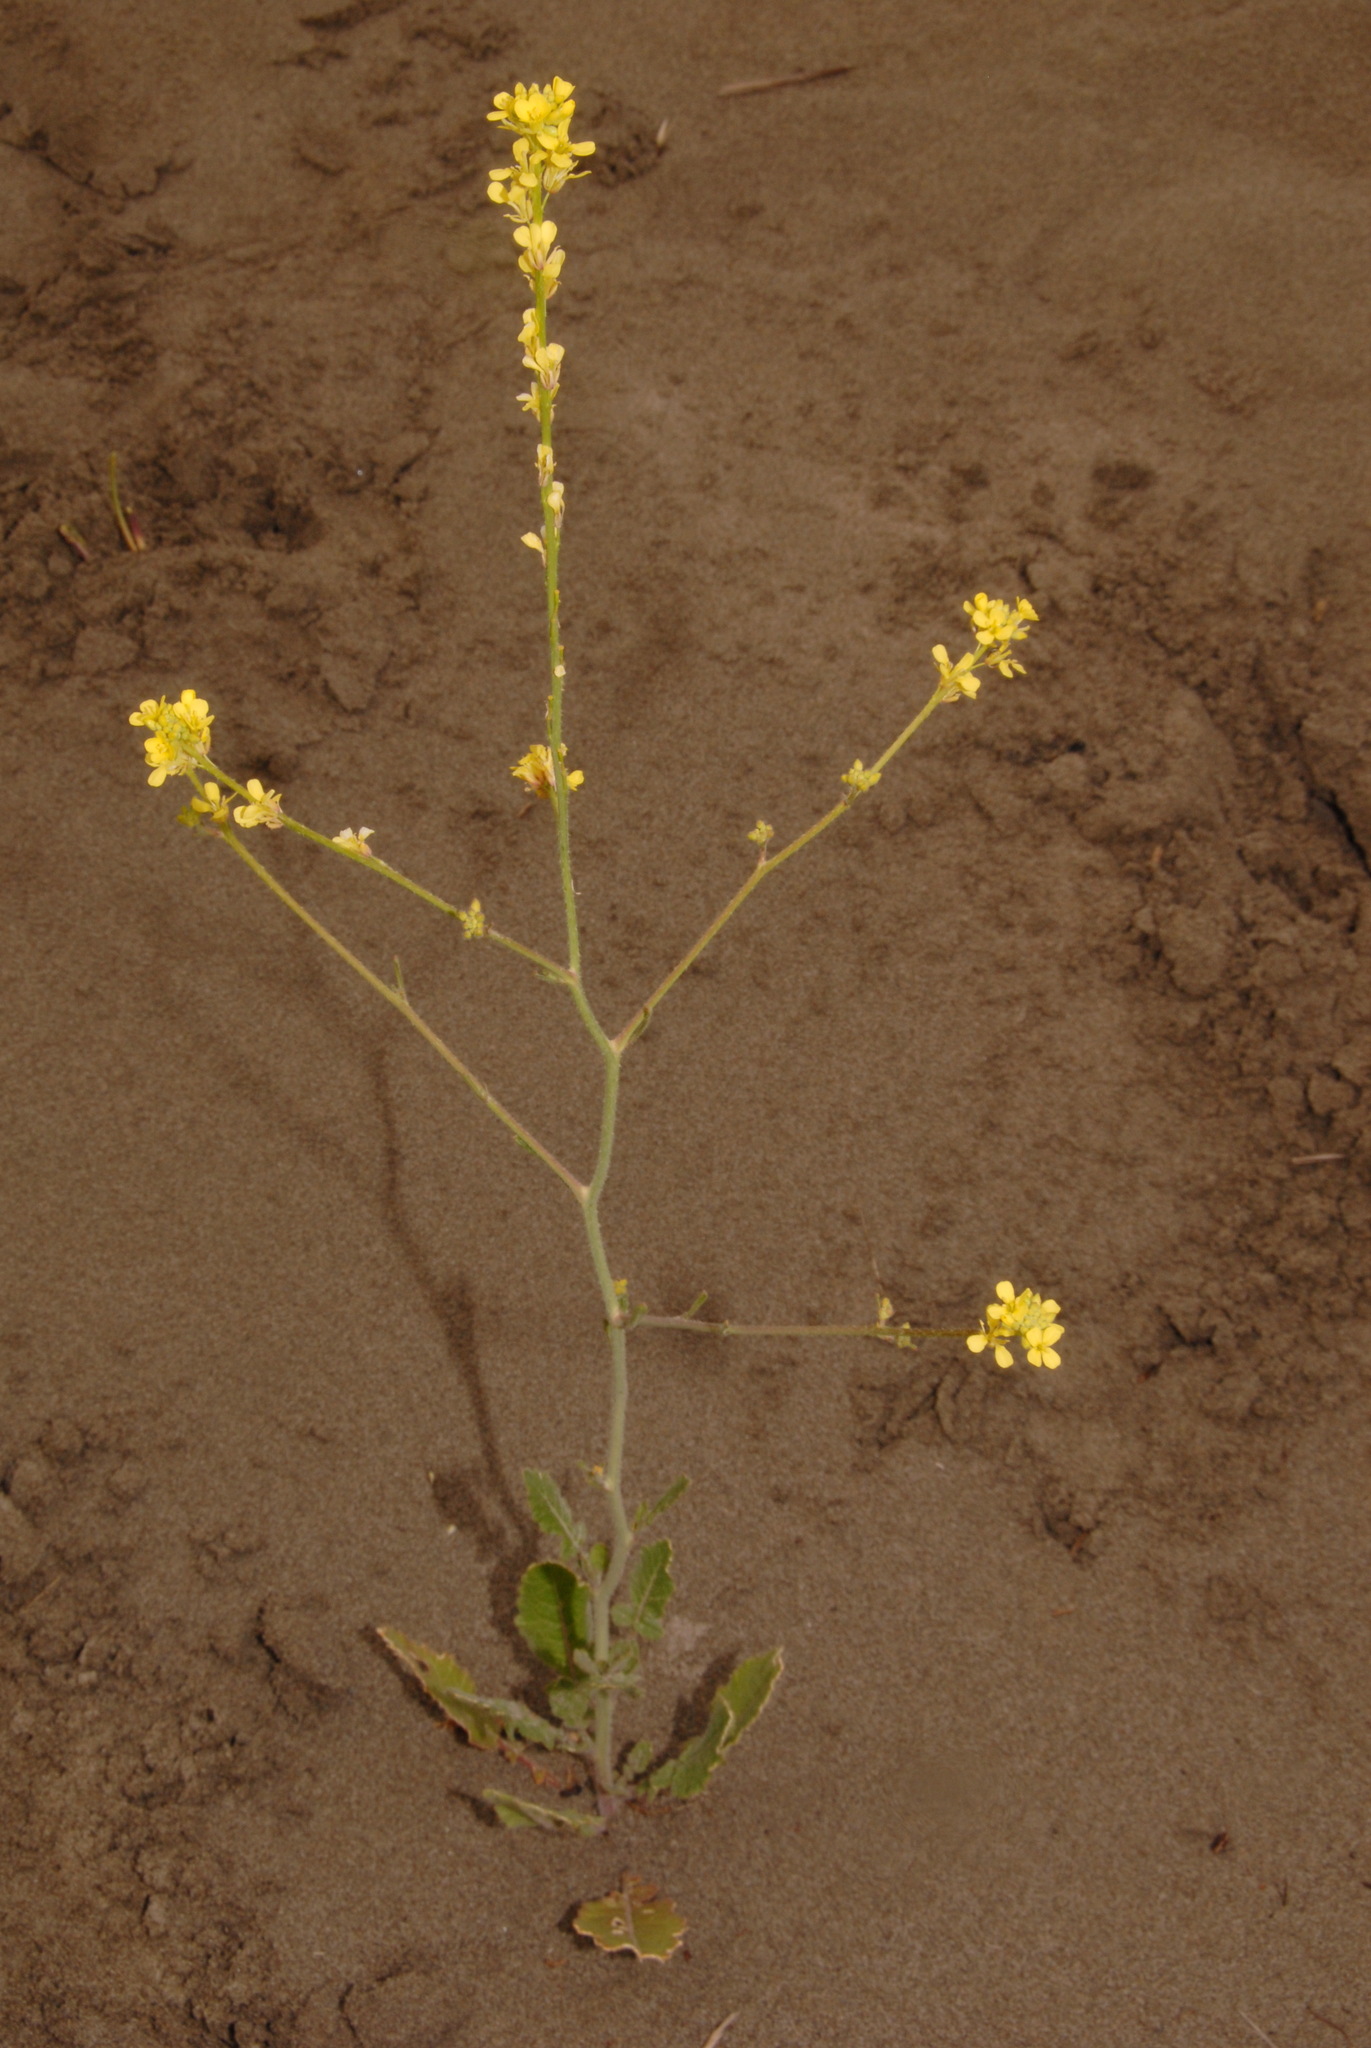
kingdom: Plantae
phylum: Tracheophyta
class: Magnoliopsida
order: Brassicales
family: Brassicaceae
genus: Hirschfeldia
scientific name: Hirschfeldia incana
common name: Hoary mustard
